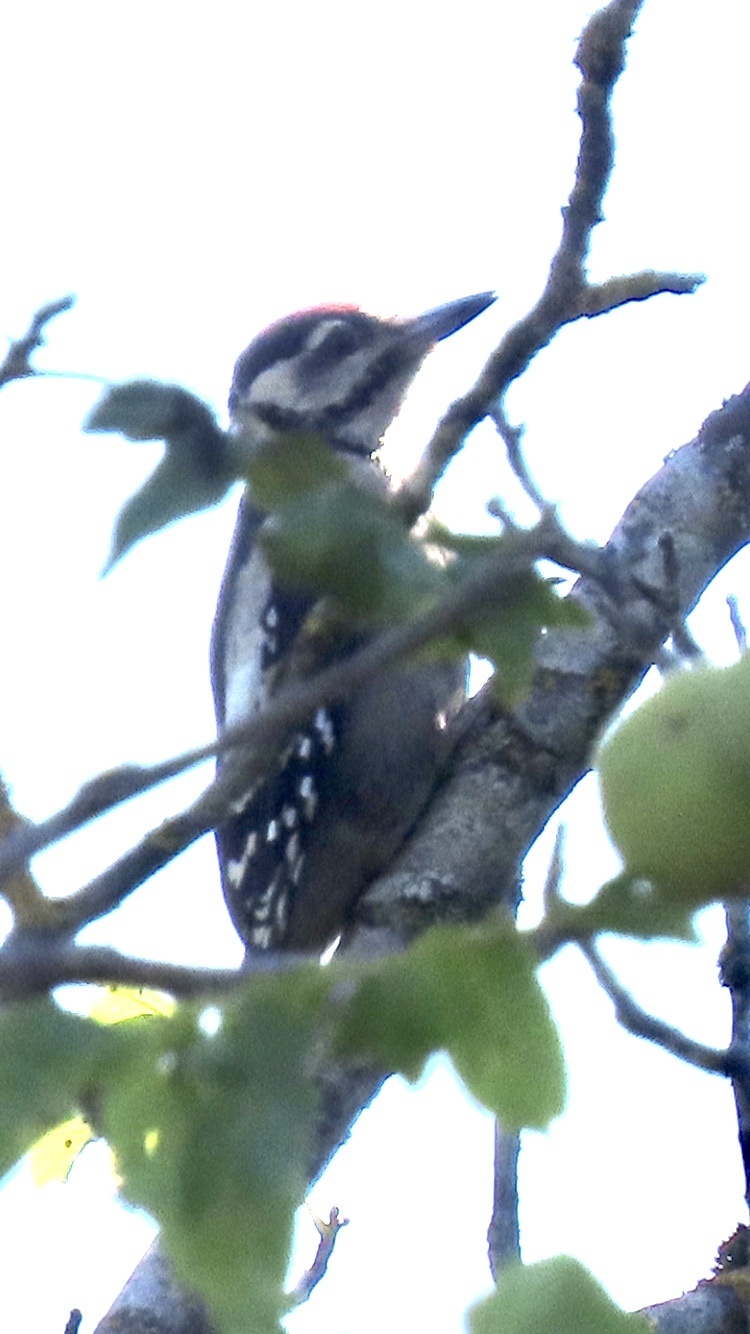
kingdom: Animalia
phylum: Chordata
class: Aves
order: Piciformes
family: Picidae
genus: Dendrocopos
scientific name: Dendrocopos major
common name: Great spotted woodpecker
